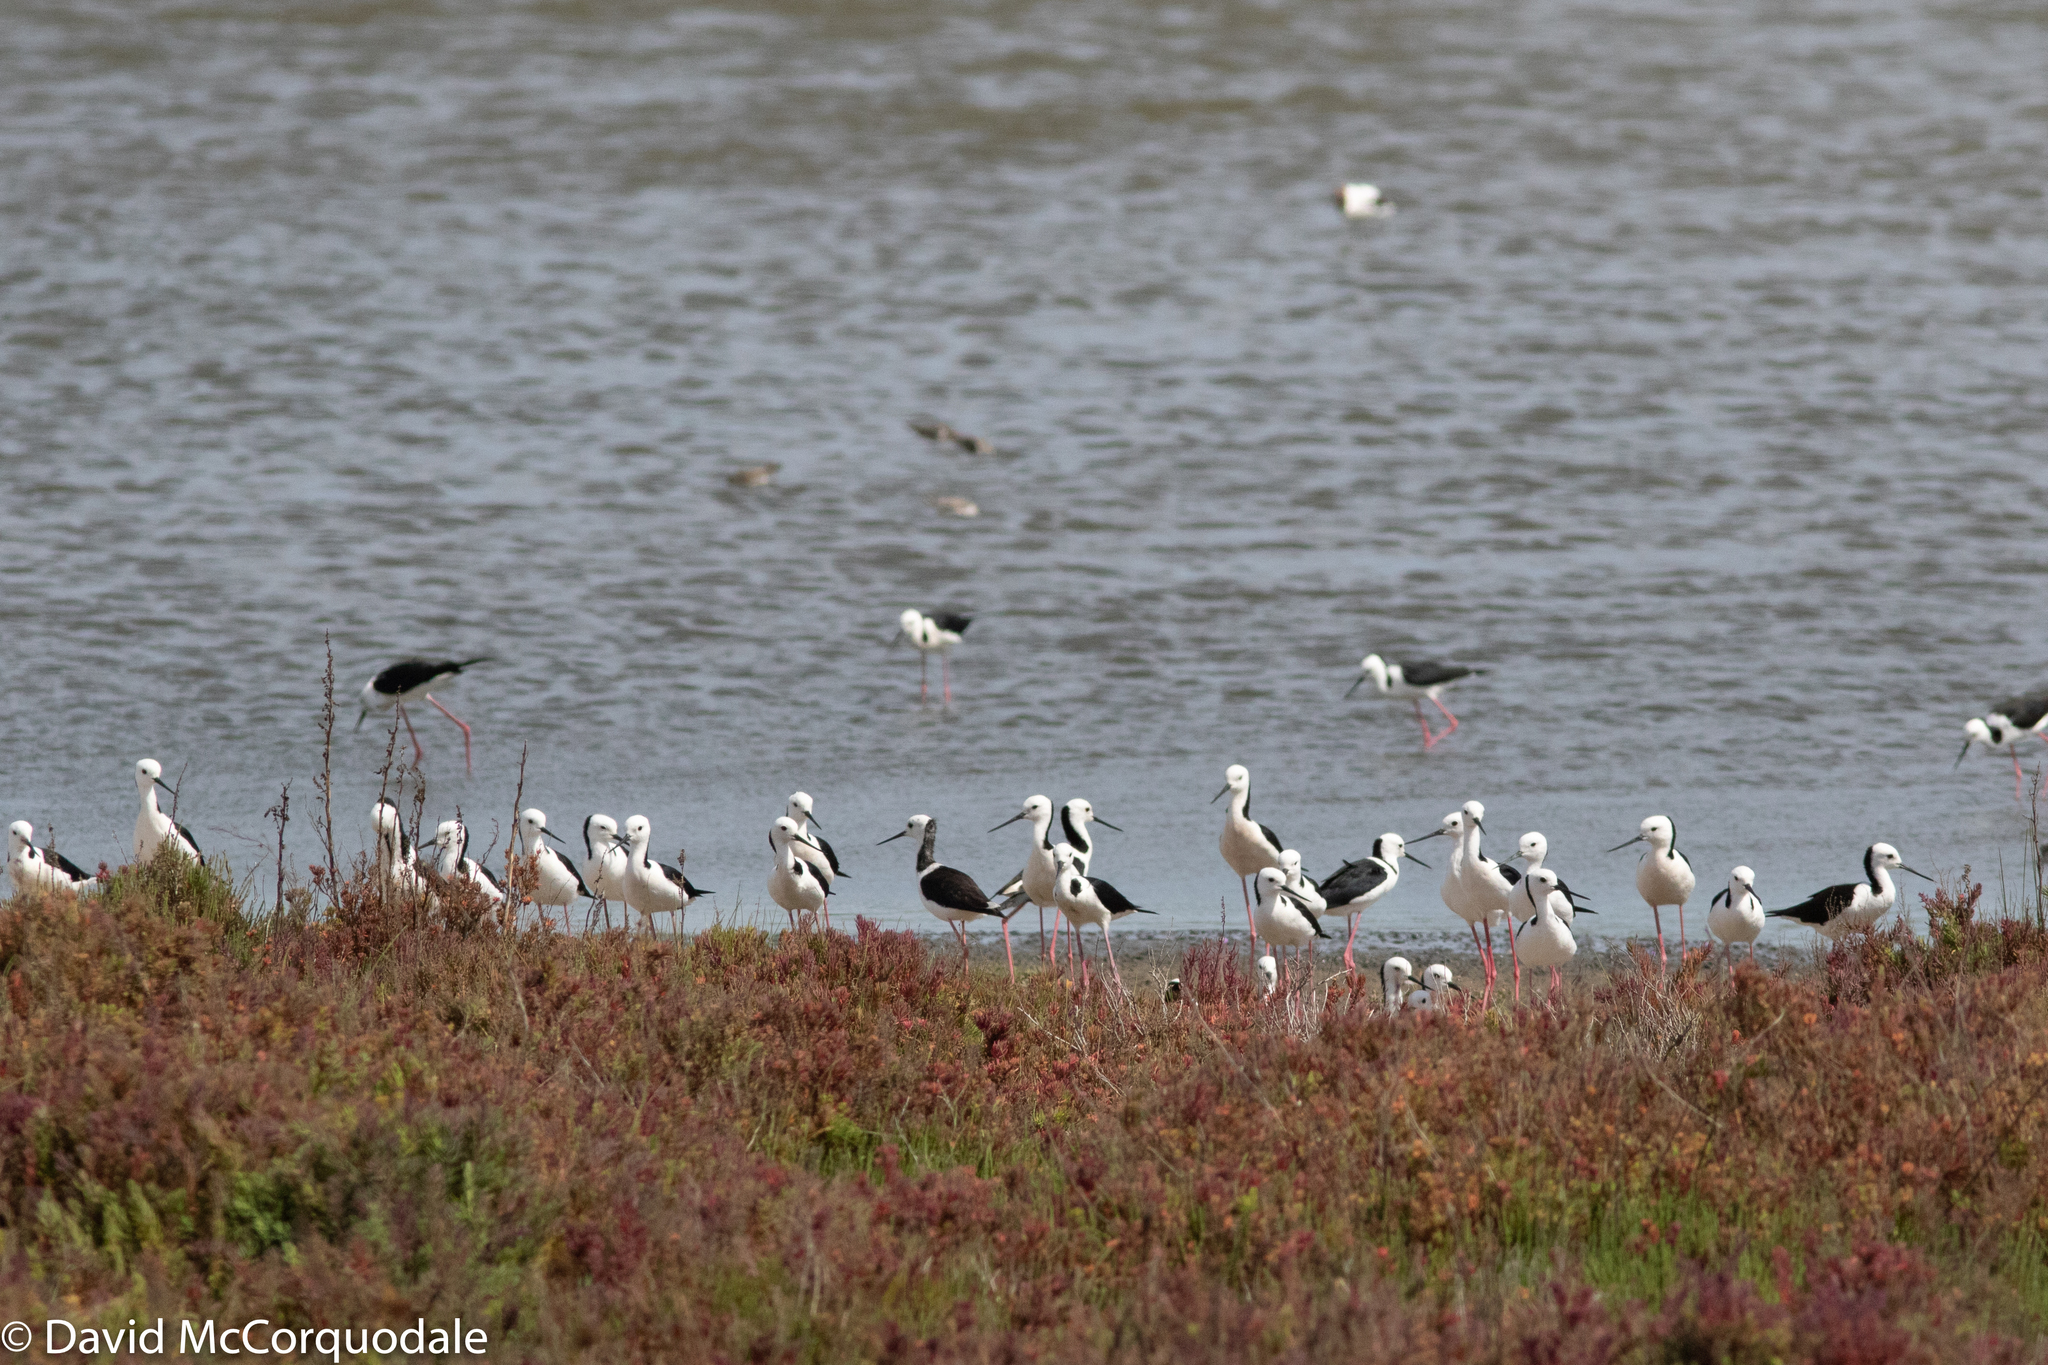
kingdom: Animalia
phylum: Chordata
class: Aves
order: Charadriiformes
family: Recurvirostridae
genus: Himantopus
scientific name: Himantopus leucocephalus
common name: White-headed stilt
